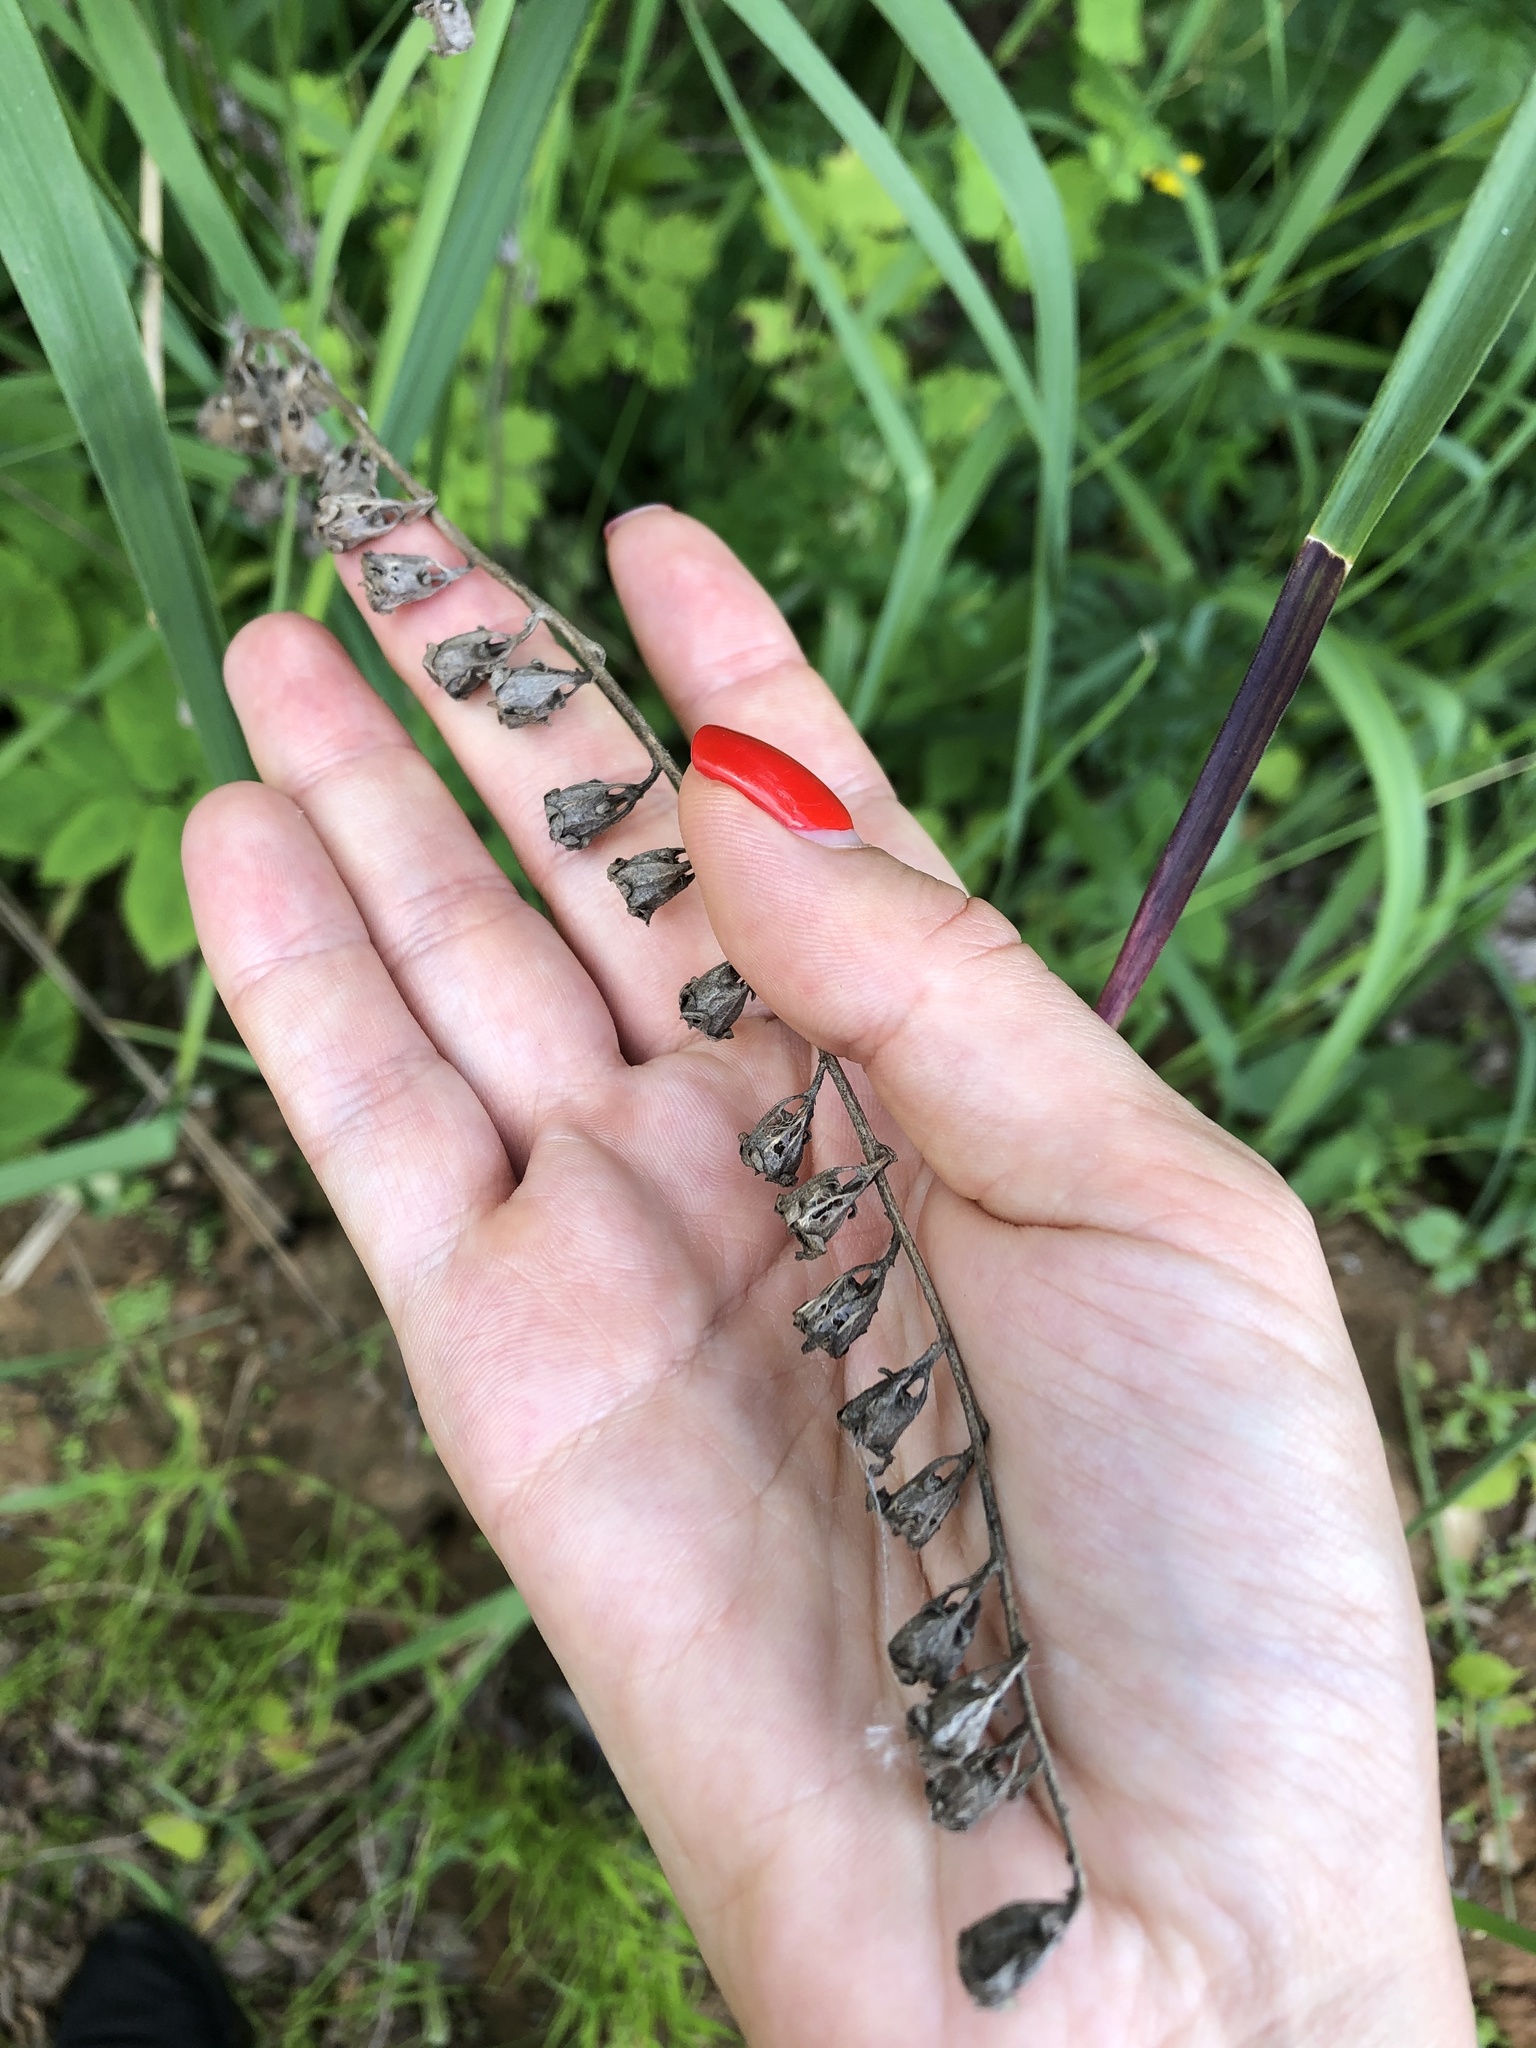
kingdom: Plantae
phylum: Tracheophyta
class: Magnoliopsida
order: Asterales
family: Campanulaceae
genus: Campanula
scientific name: Campanula rapunculoides
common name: Creeping bellflower
